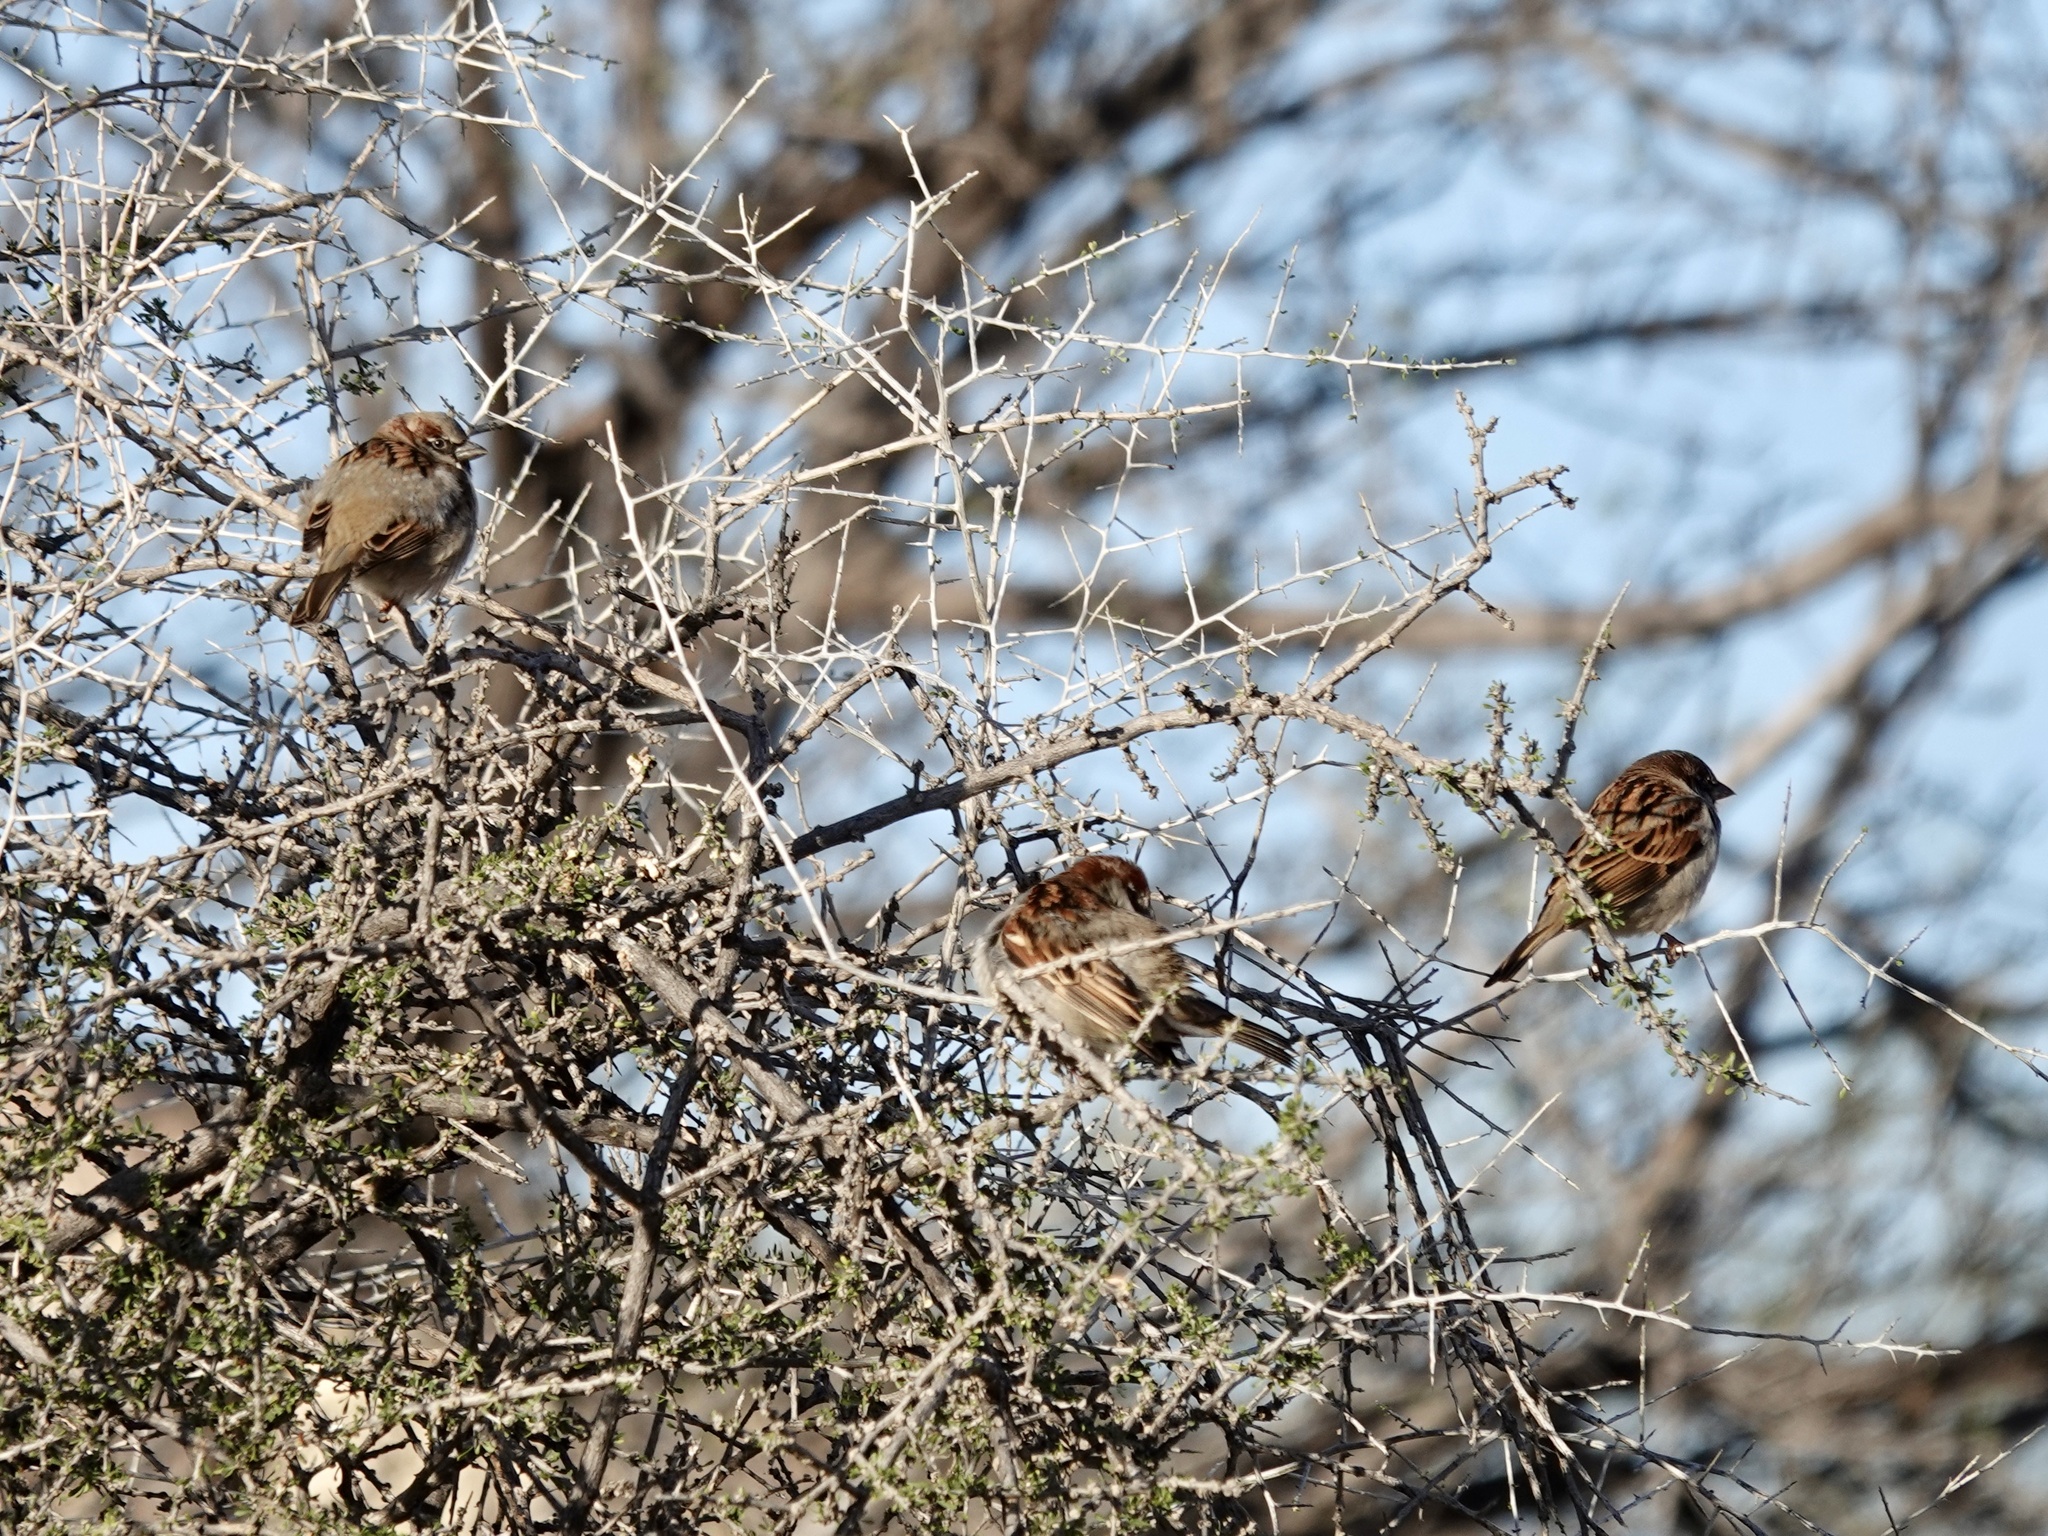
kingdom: Animalia
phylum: Chordata
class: Aves
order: Passeriformes
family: Passeridae
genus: Passer
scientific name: Passer domesticus
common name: House sparrow
